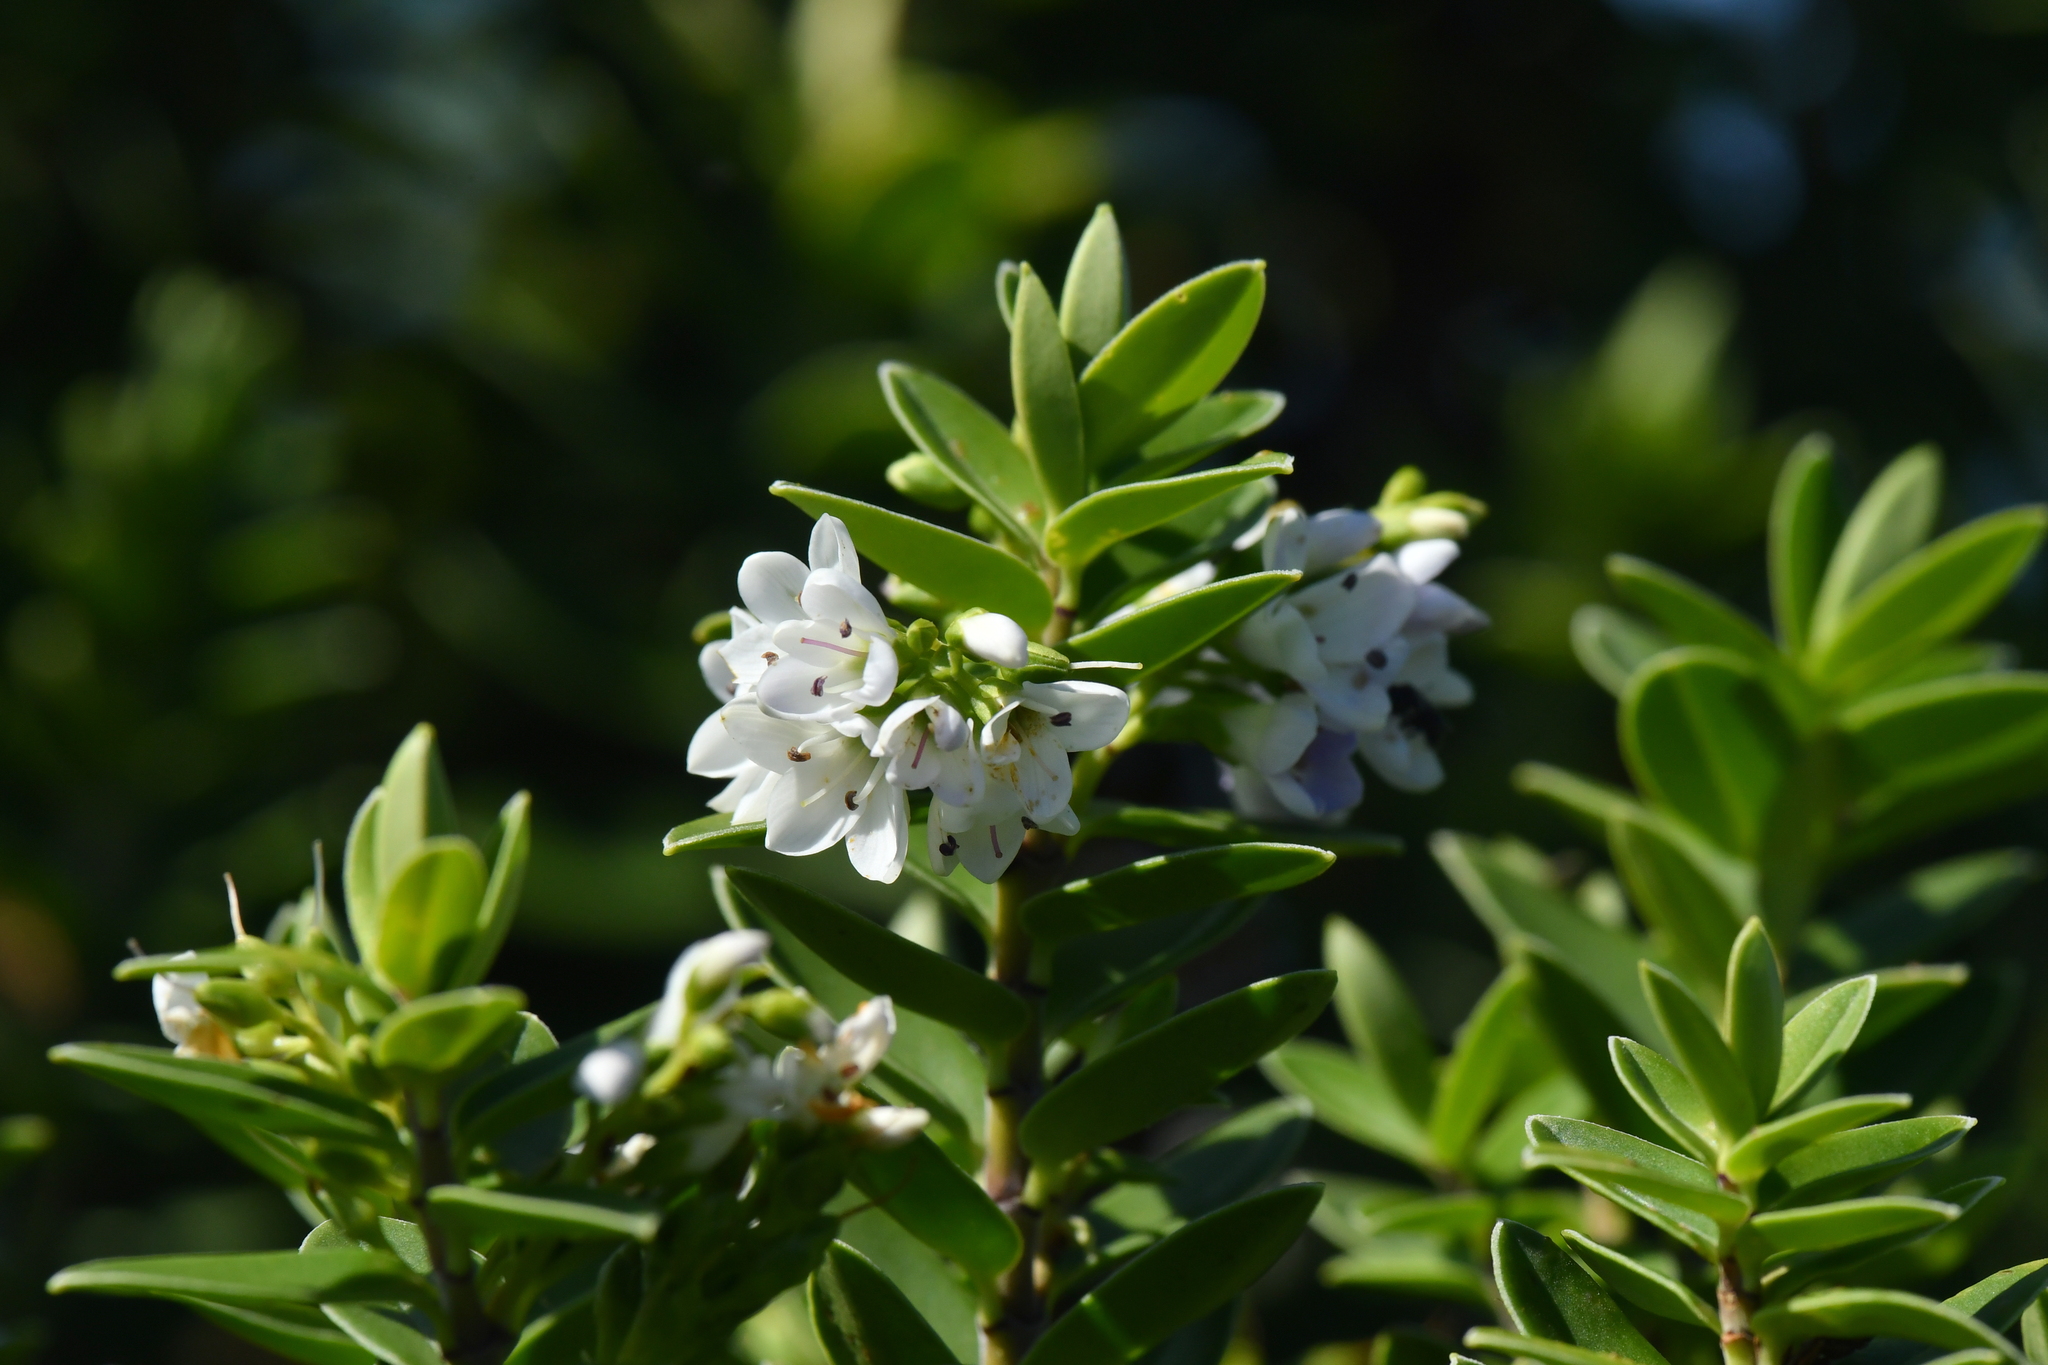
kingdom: Plantae
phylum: Tracheophyta
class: Magnoliopsida
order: Lamiales
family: Plantaginaceae
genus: Veronica
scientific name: Veronica elliptica
